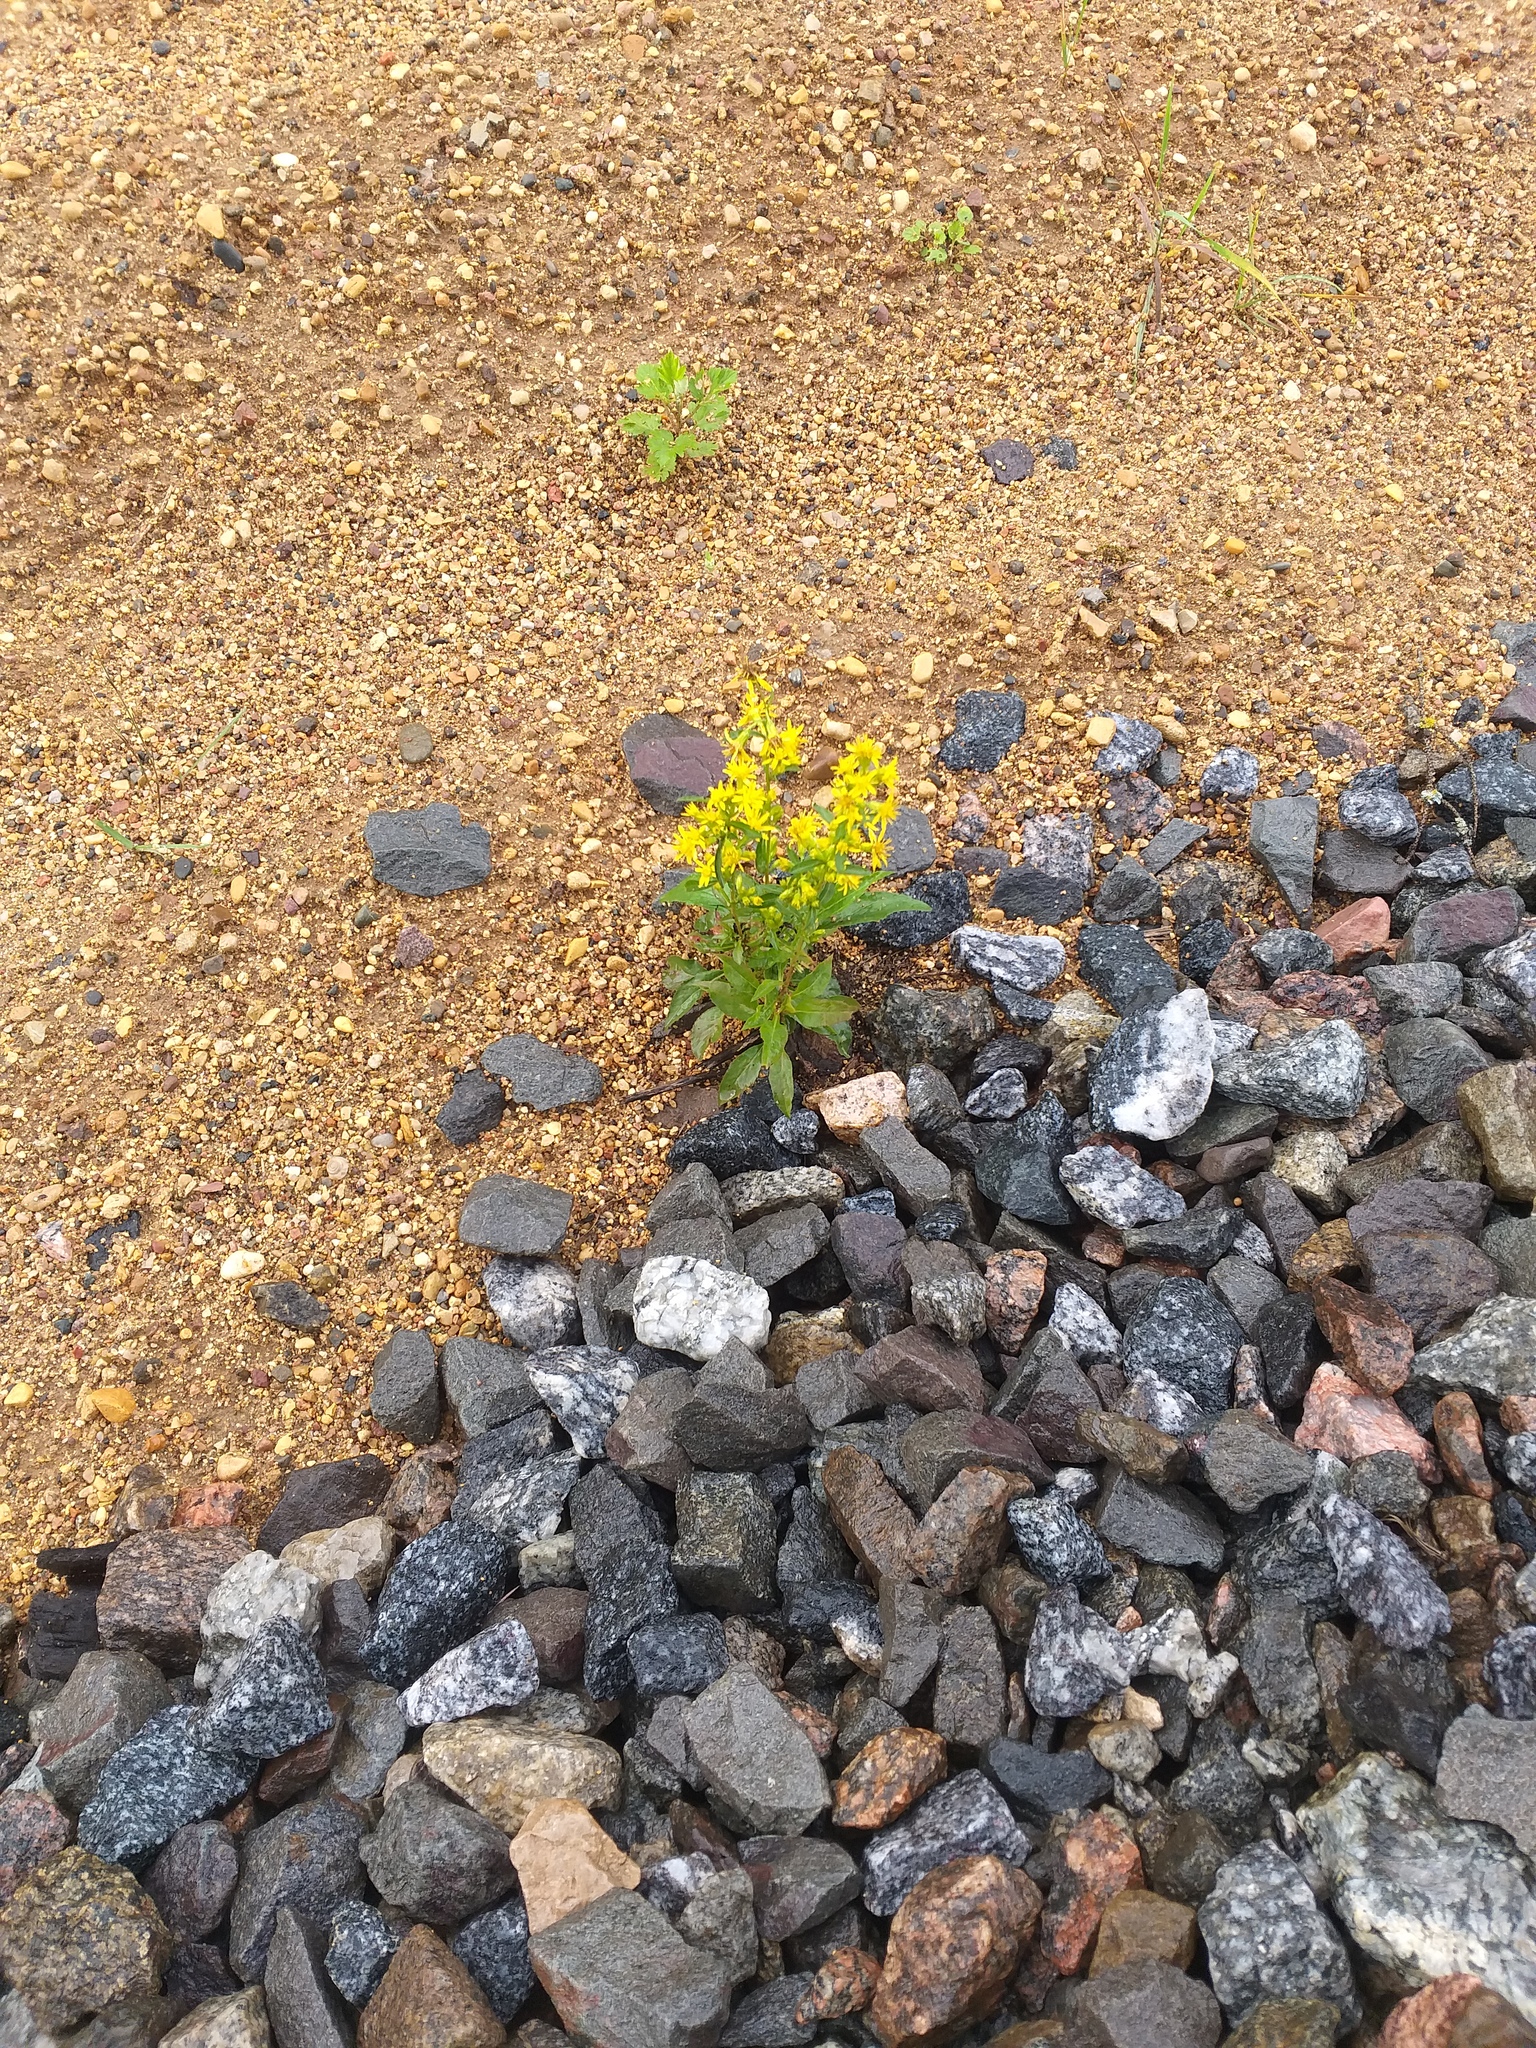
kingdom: Plantae
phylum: Tracheophyta
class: Magnoliopsida
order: Asterales
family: Asteraceae
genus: Solidago
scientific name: Solidago virgaurea
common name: Goldenrod
